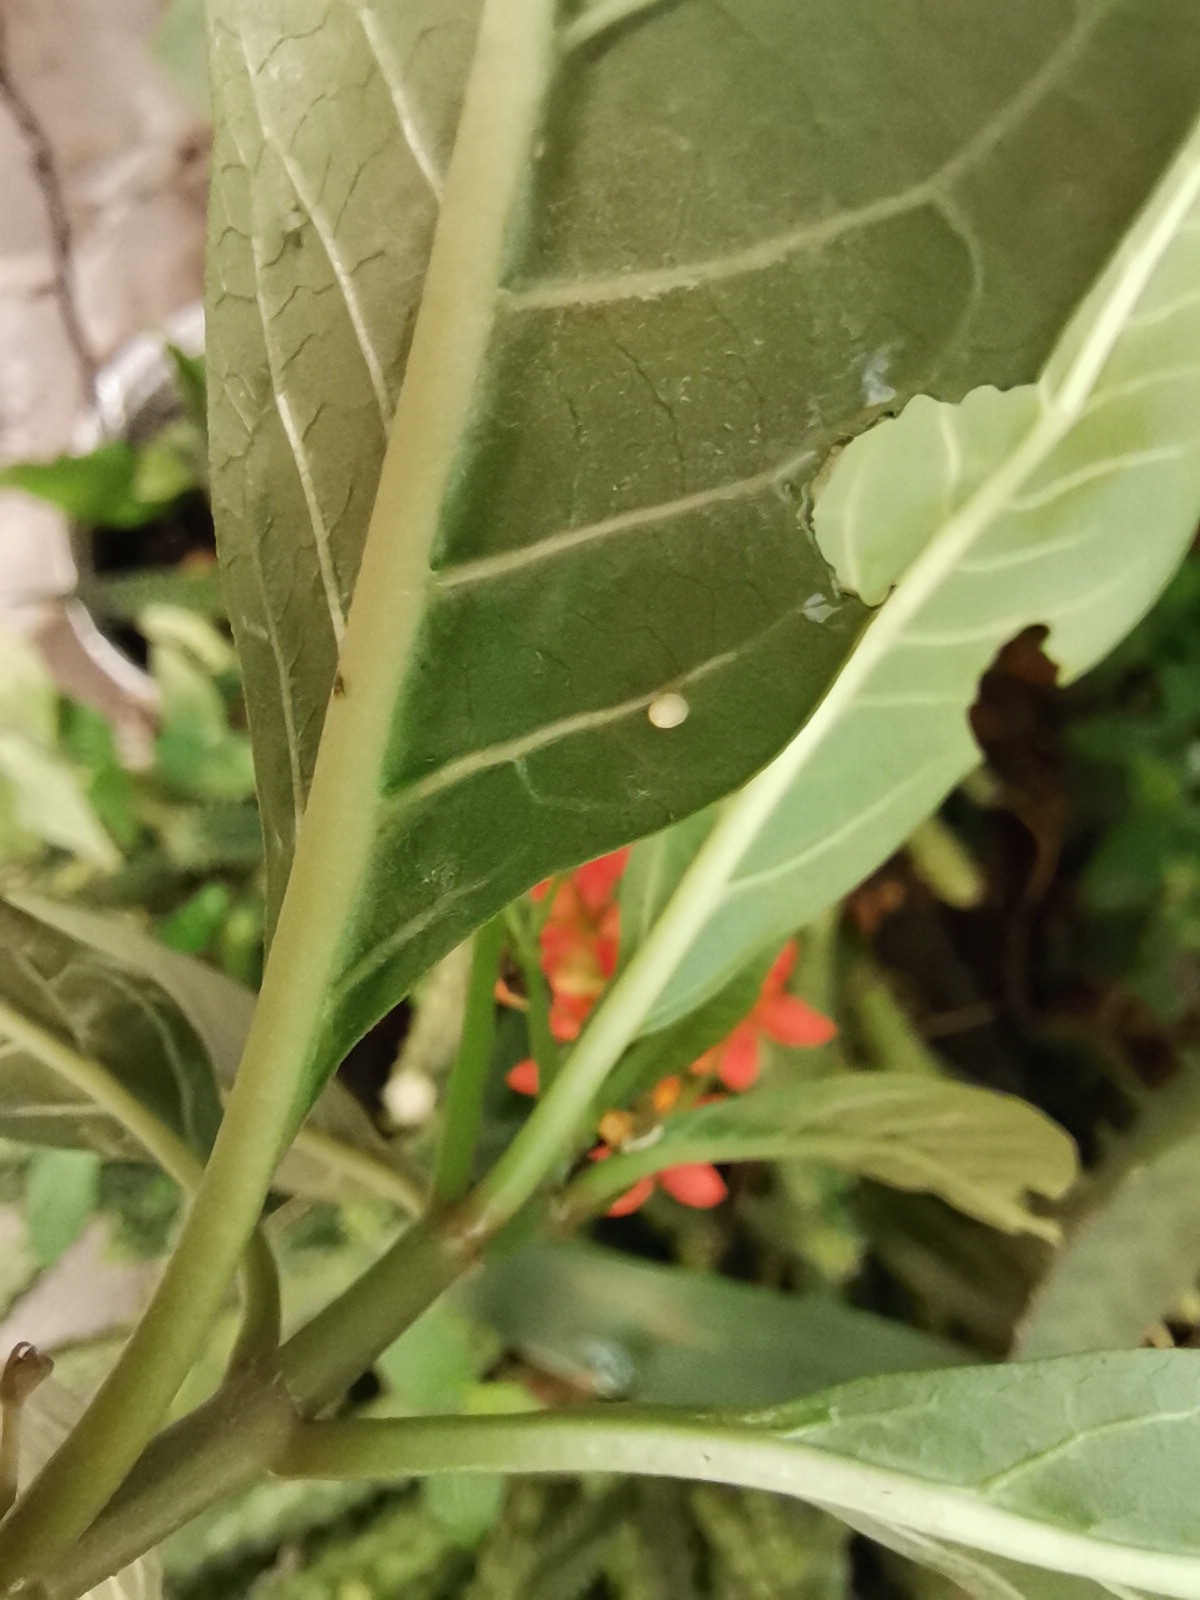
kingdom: Animalia
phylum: Arthropoda
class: Insecta
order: Lepidoptera
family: Nymphalidae
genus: Danaus
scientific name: Danaus plexippus
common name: Monarch
